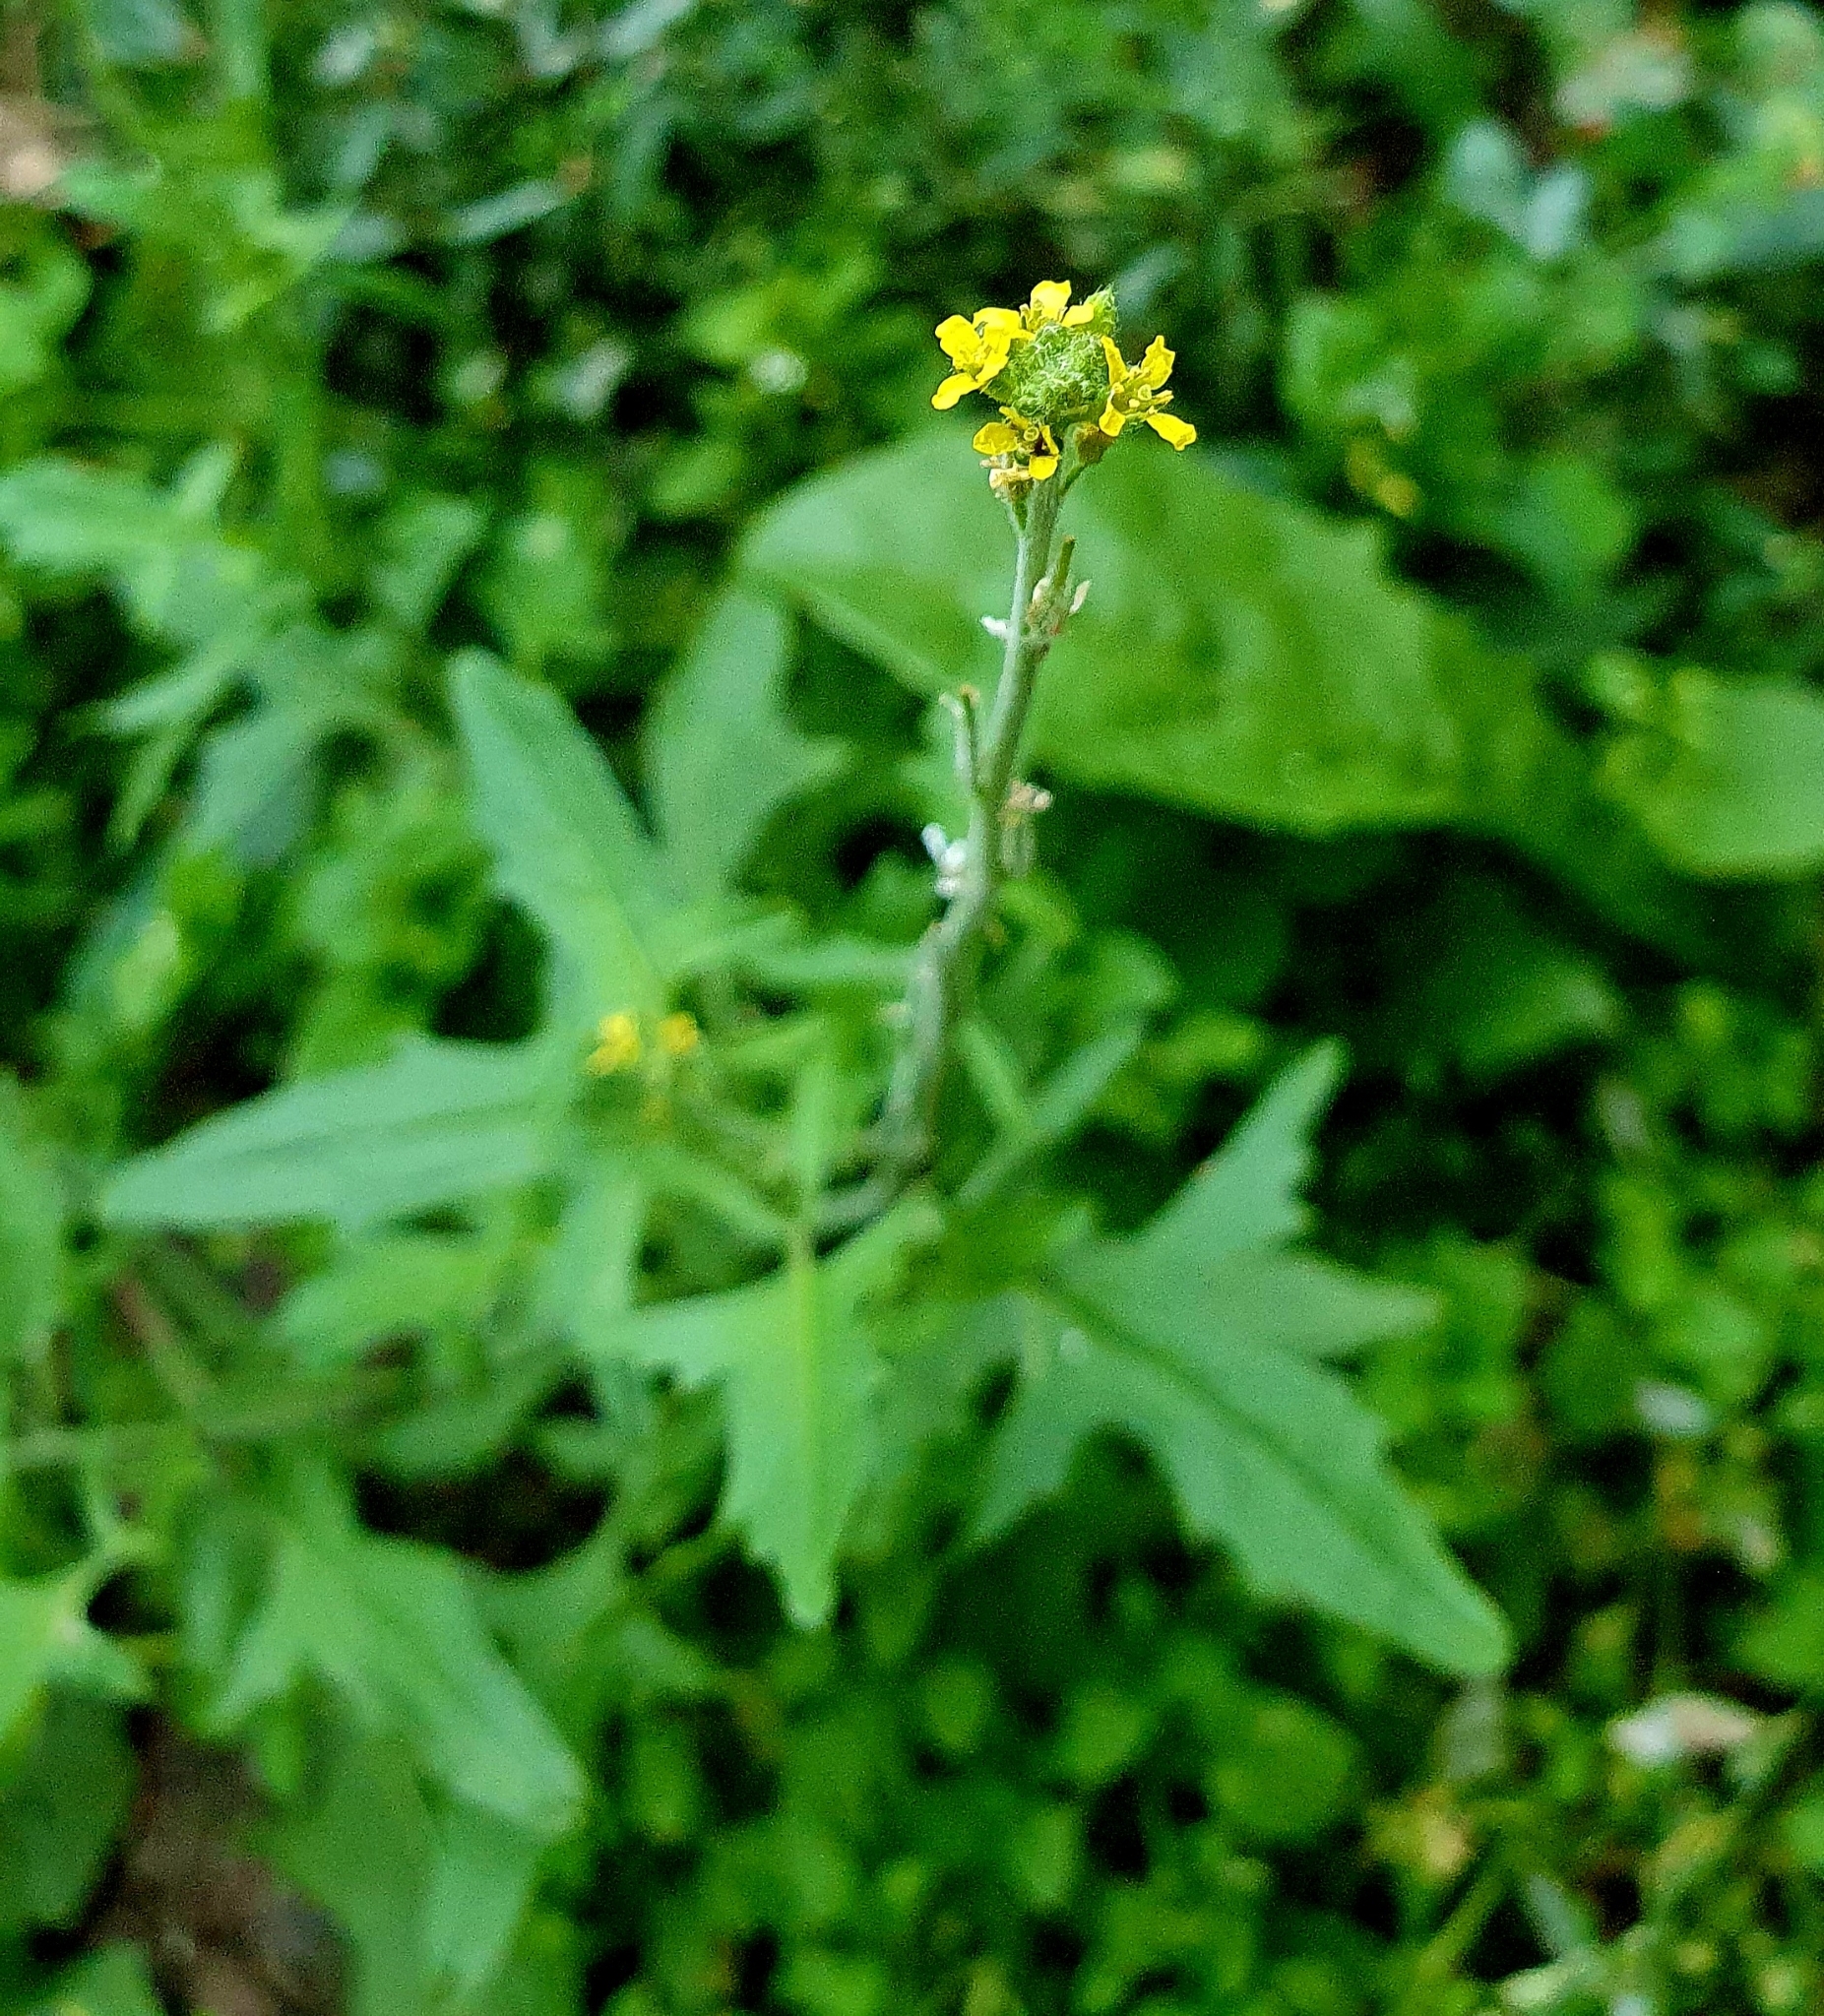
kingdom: Plantae
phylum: Tracheophyta
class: Magnoliopsida
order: Brassicales
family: Brassicaceae
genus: Sisymbrium
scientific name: Sisymbrium officinale
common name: Hedge mustard
